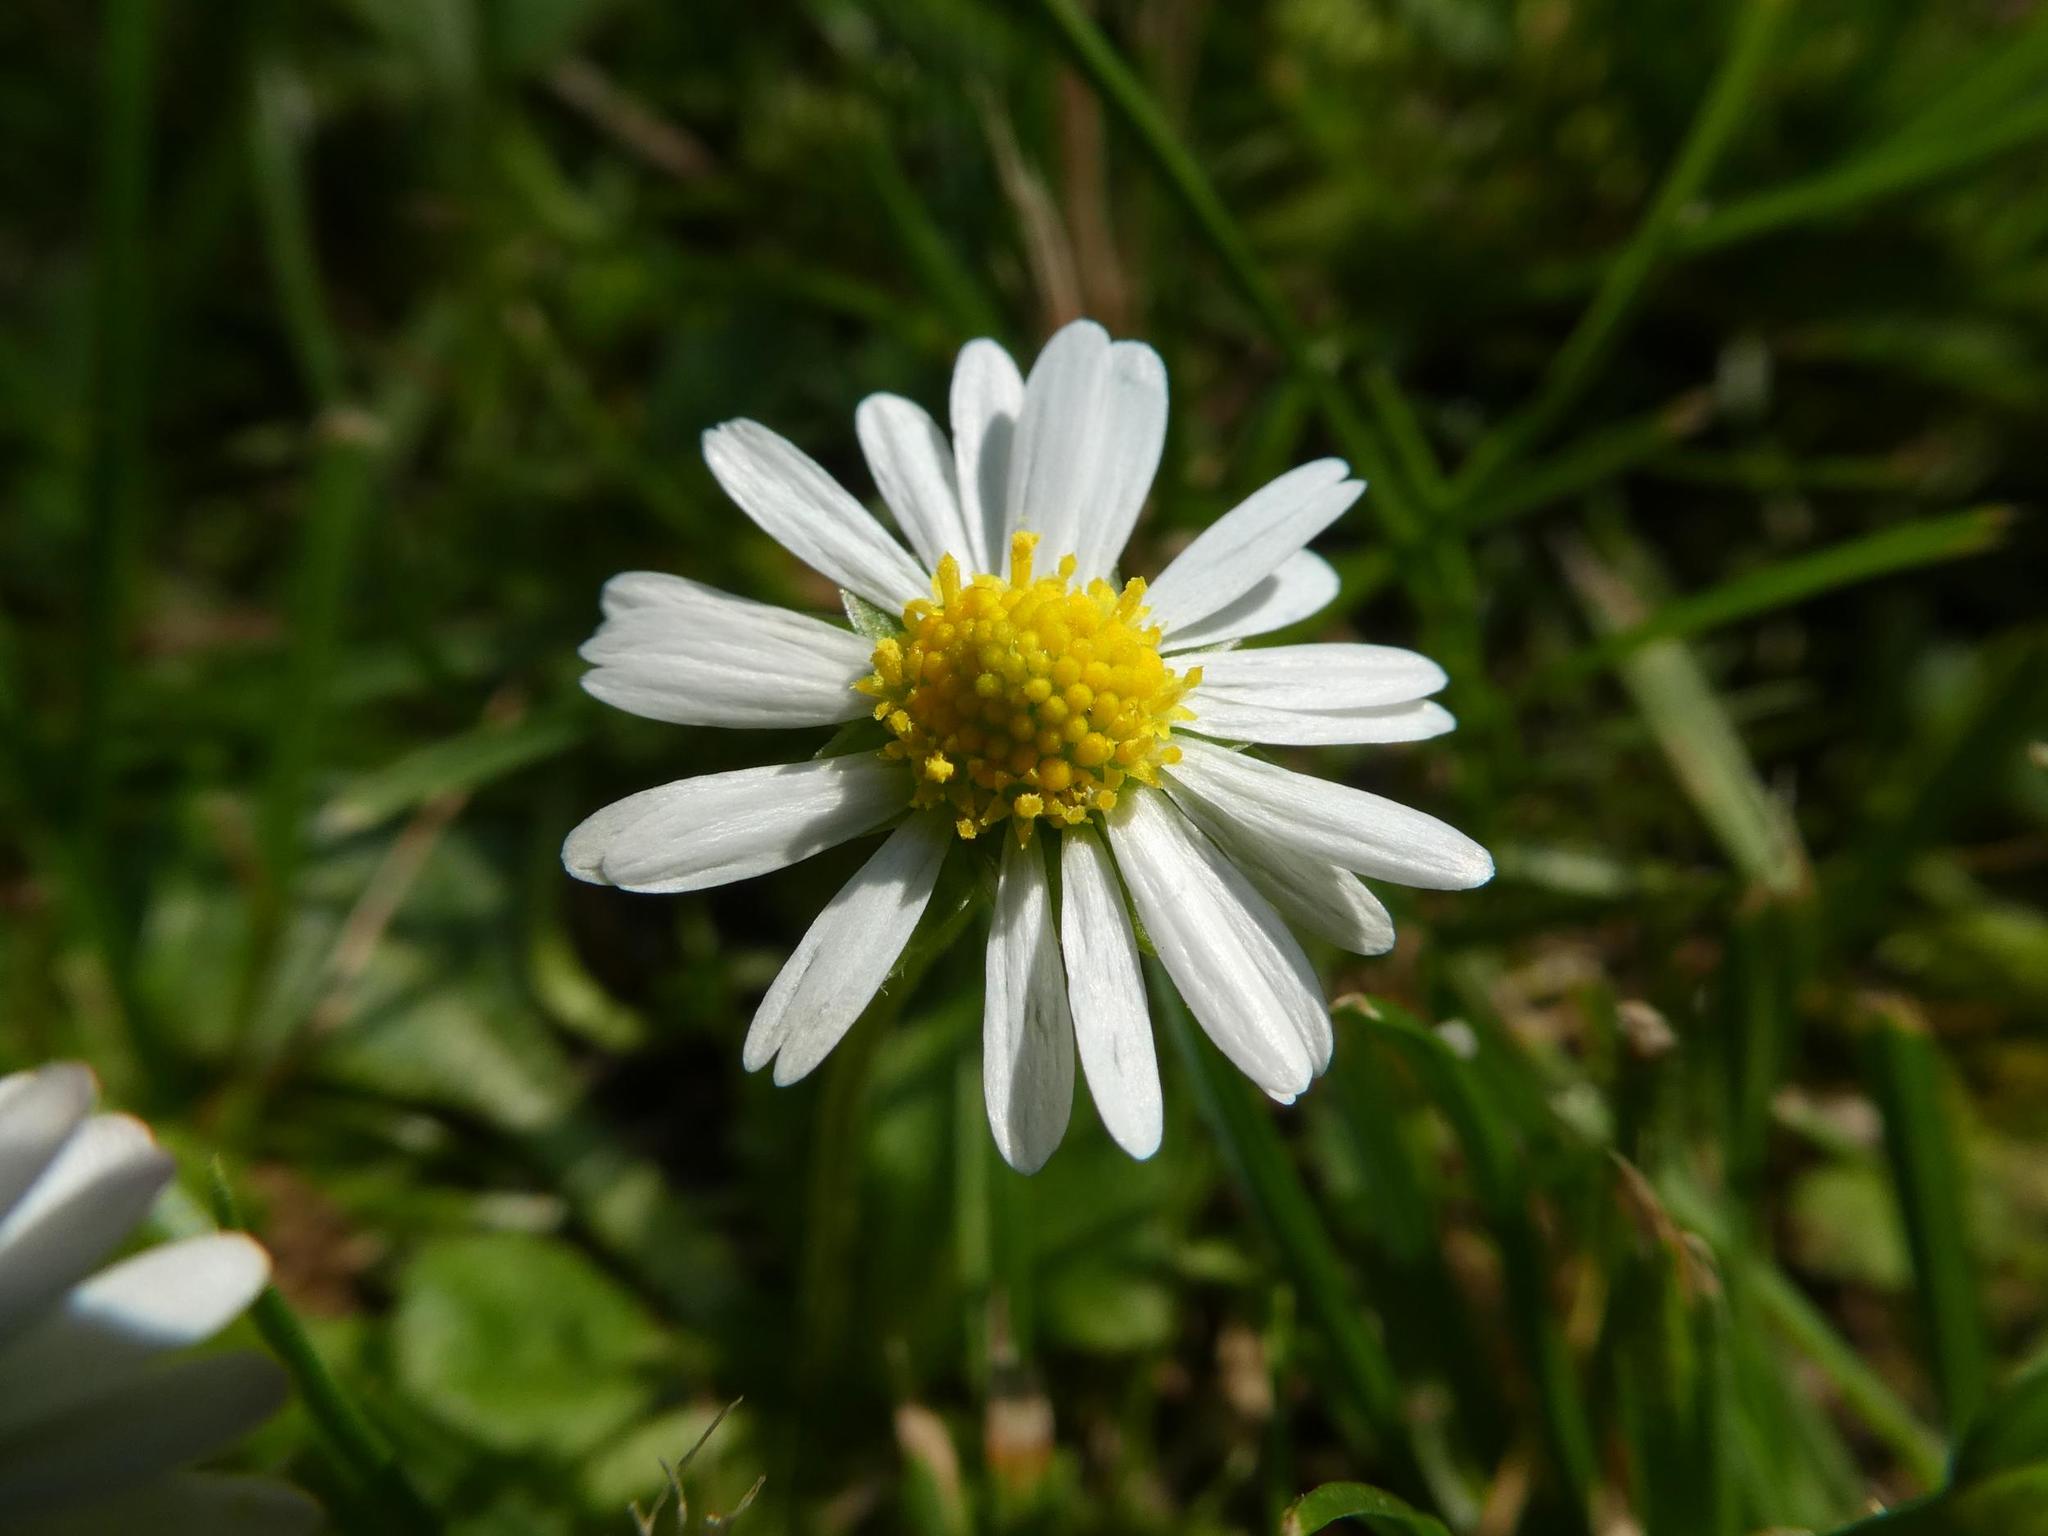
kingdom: Plantae
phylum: Tracheophyta
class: Magnoliopsida
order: Asterales
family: Asteraceae
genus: Bellis
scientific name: Bellis perennis
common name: Lawndaisy
